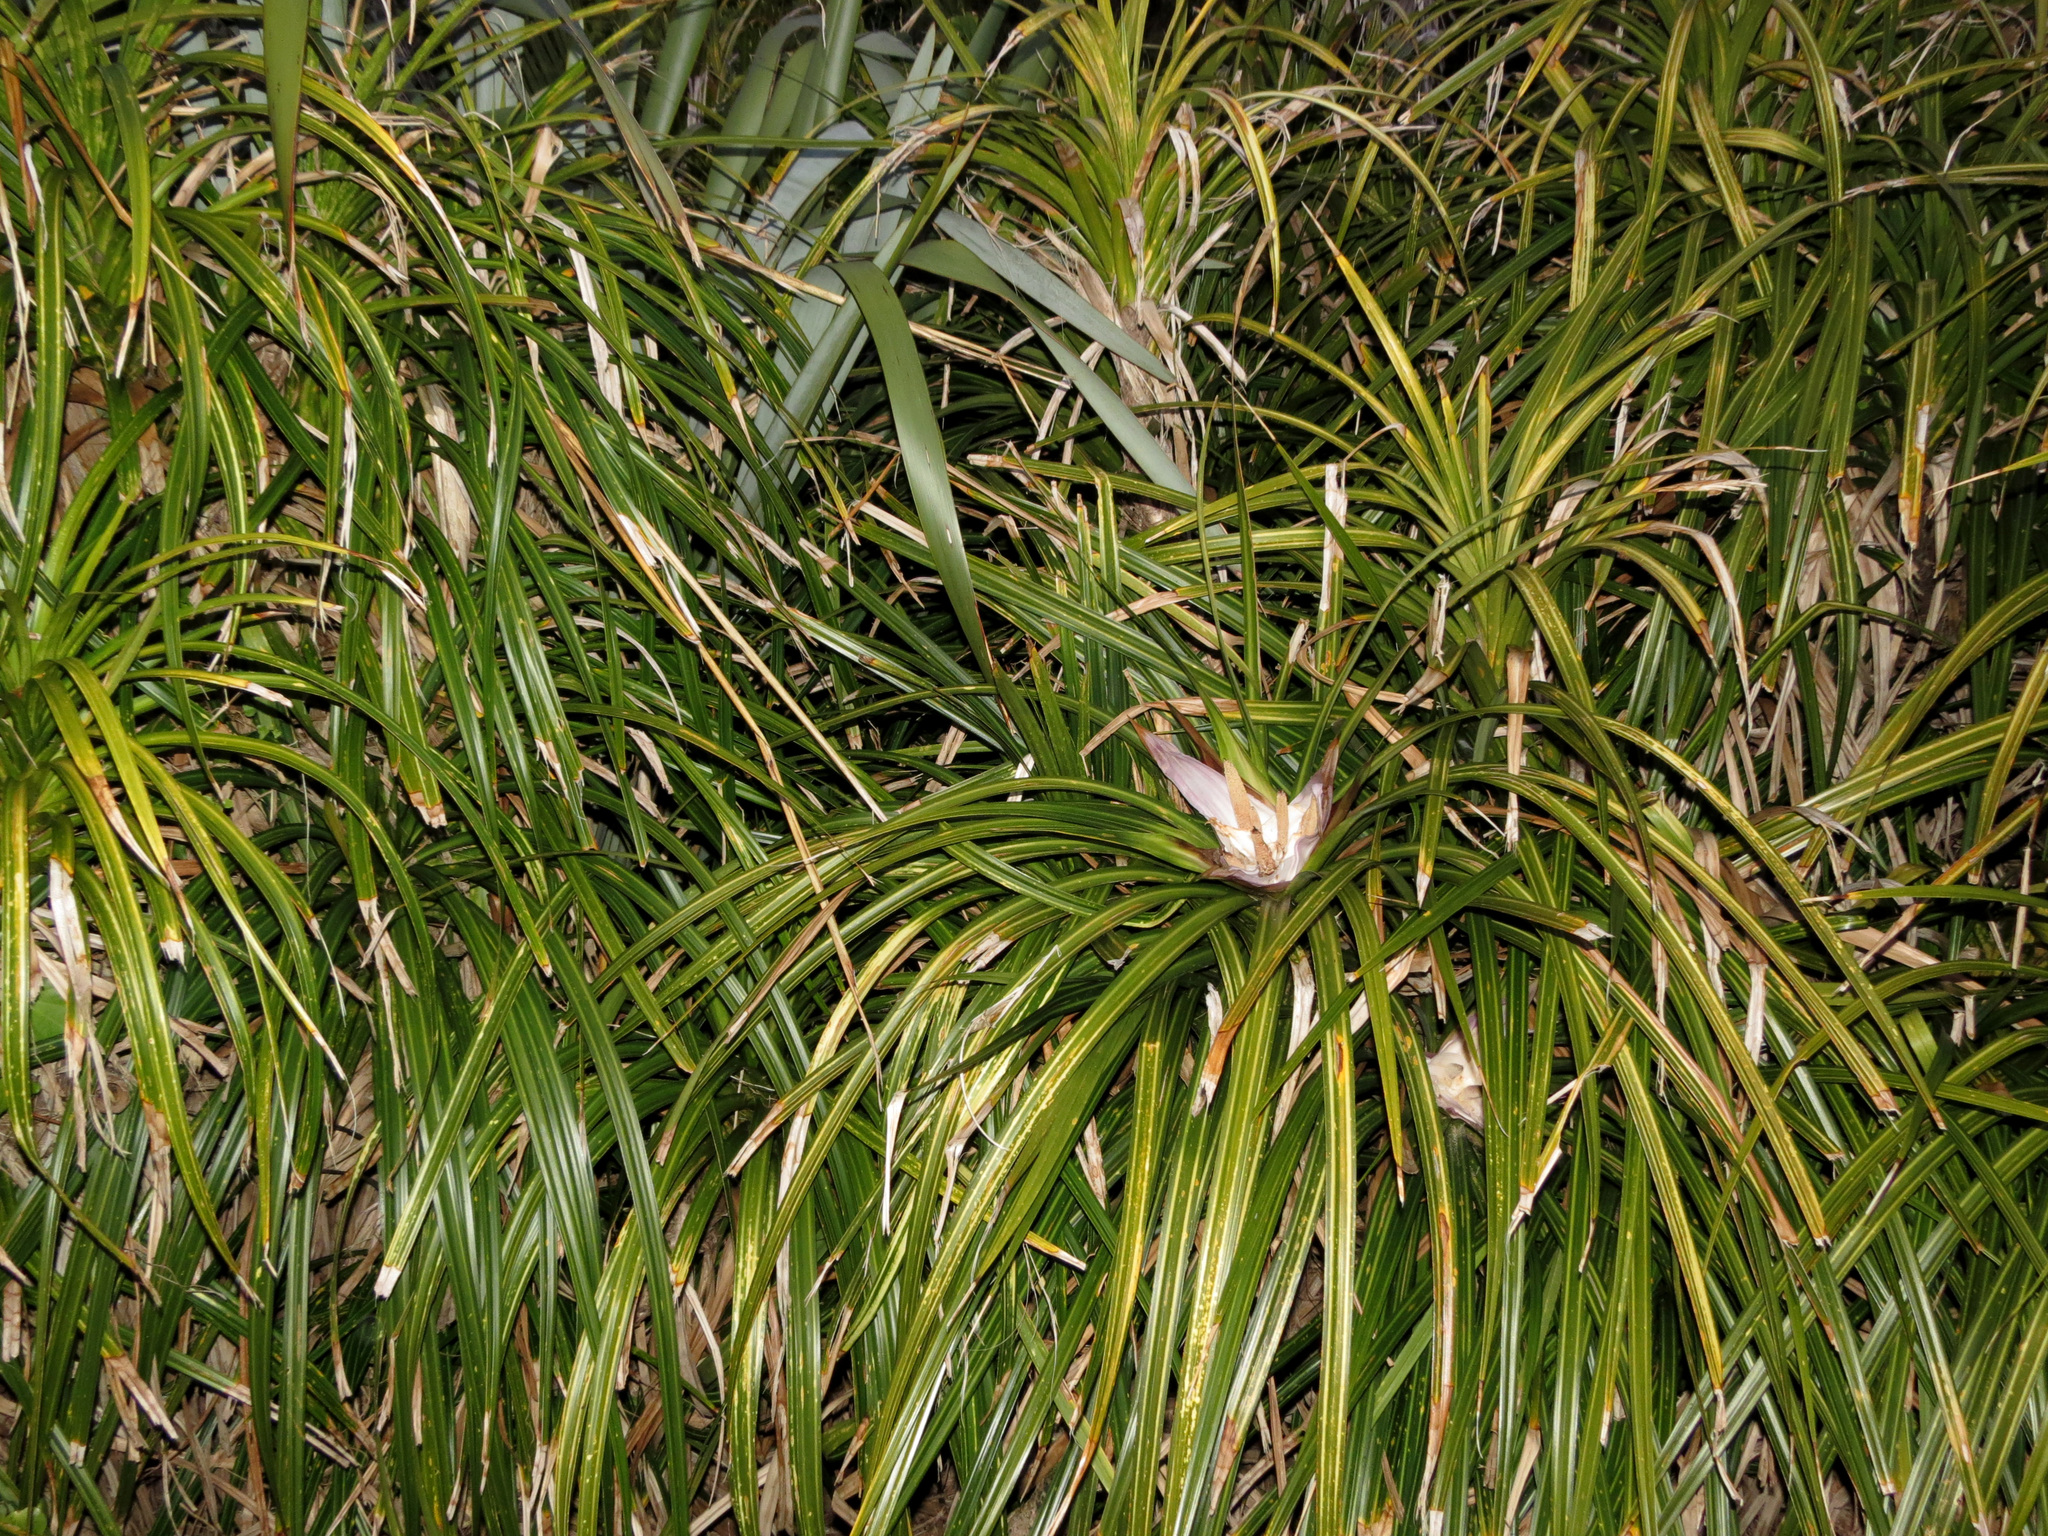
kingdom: Plantae
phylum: Tracheophyta
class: Liliopsida
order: Pandanales
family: Pandanaceae
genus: Freycinetia
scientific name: Freycinetia banksii
